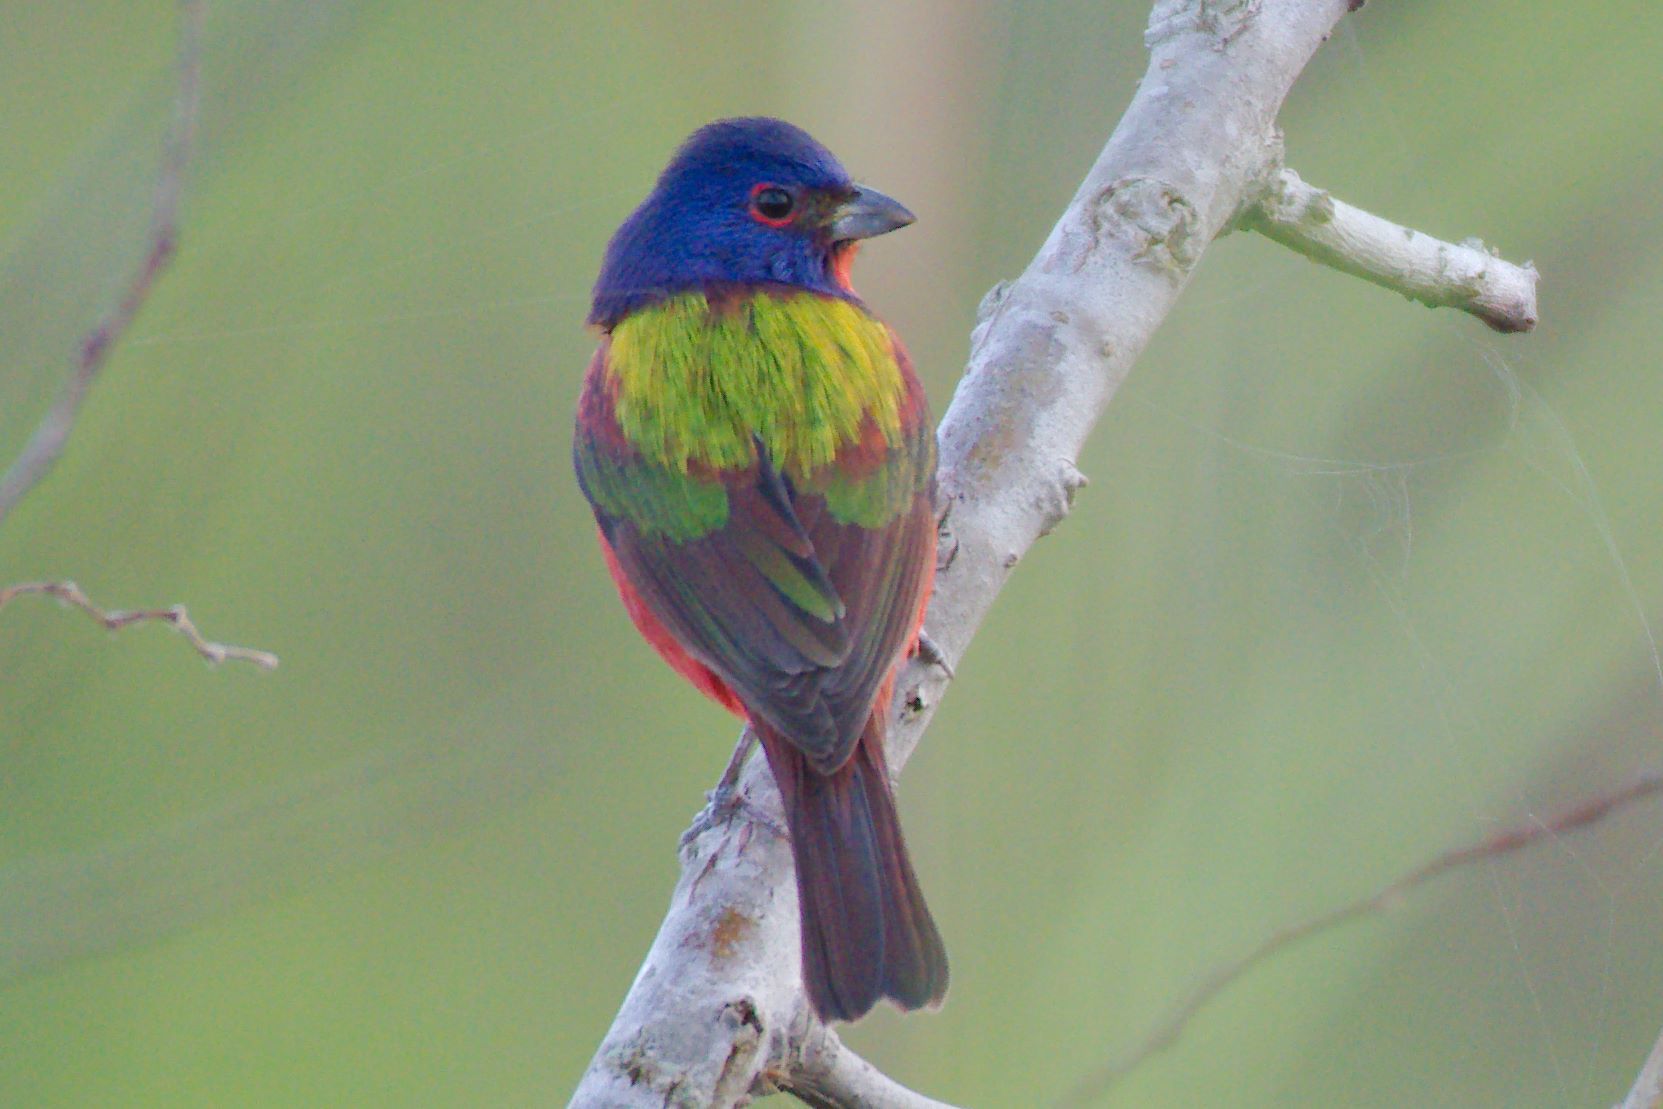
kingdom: Animalia
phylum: Chordata
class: Aves
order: Passeriformes
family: Cardinalidae
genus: Passerina
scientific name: Passerina ciris
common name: Painted bunting
